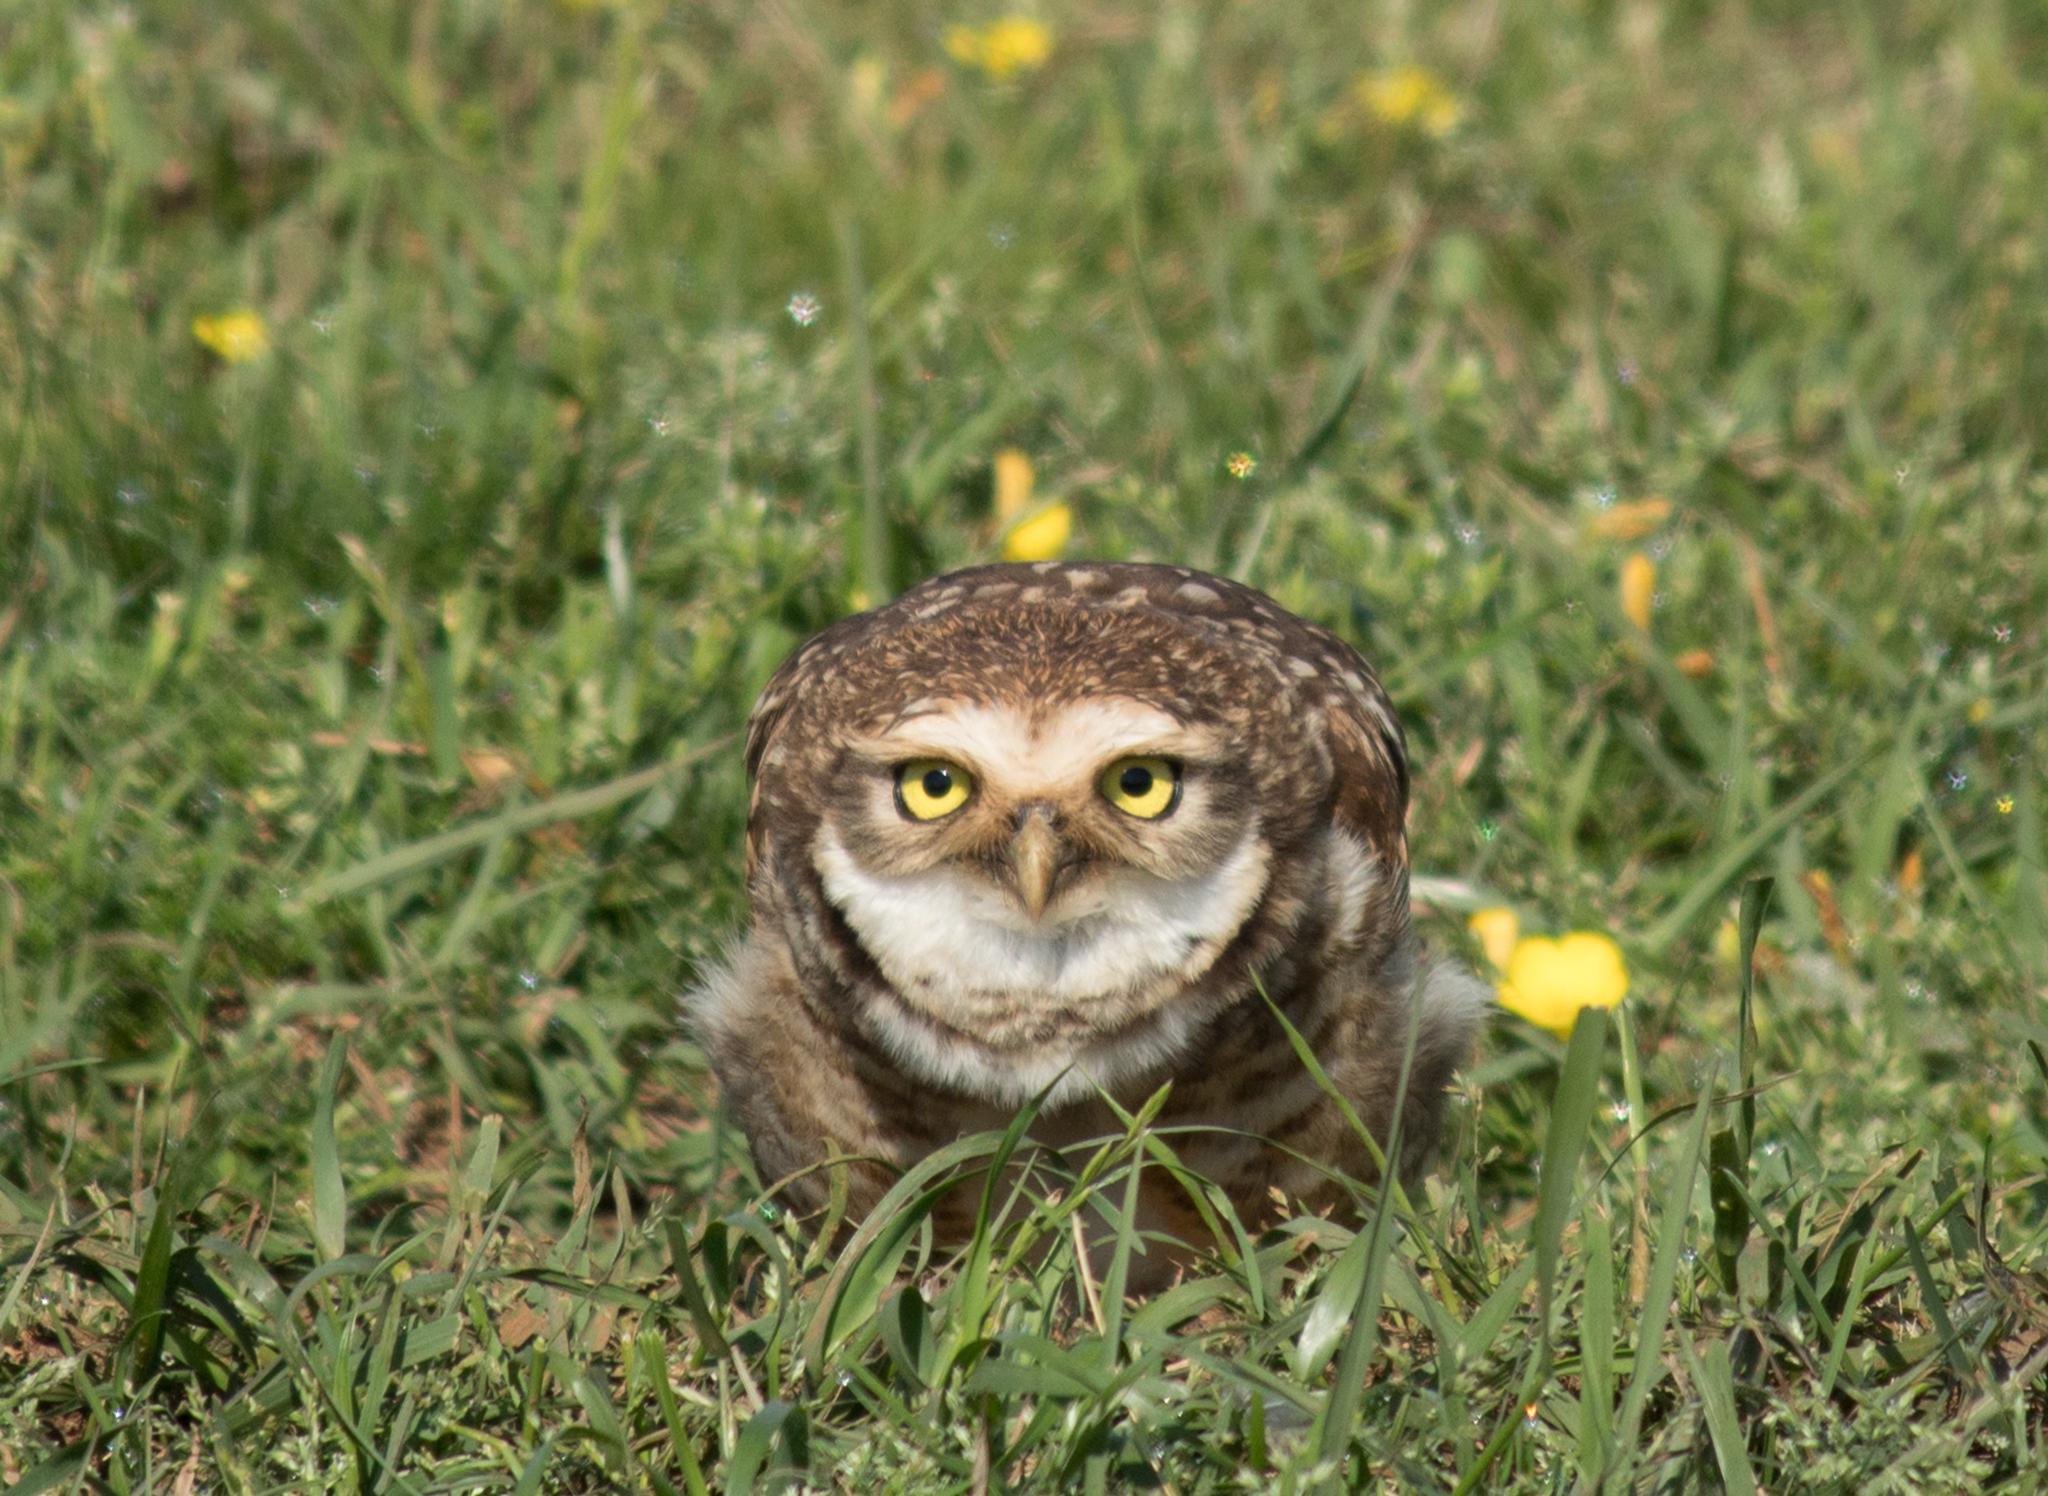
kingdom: Animalia
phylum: Chordata
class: Aves
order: Strigiformes
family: Strigidae
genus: Athene
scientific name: Athene cunicularia
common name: Burrowing owl
